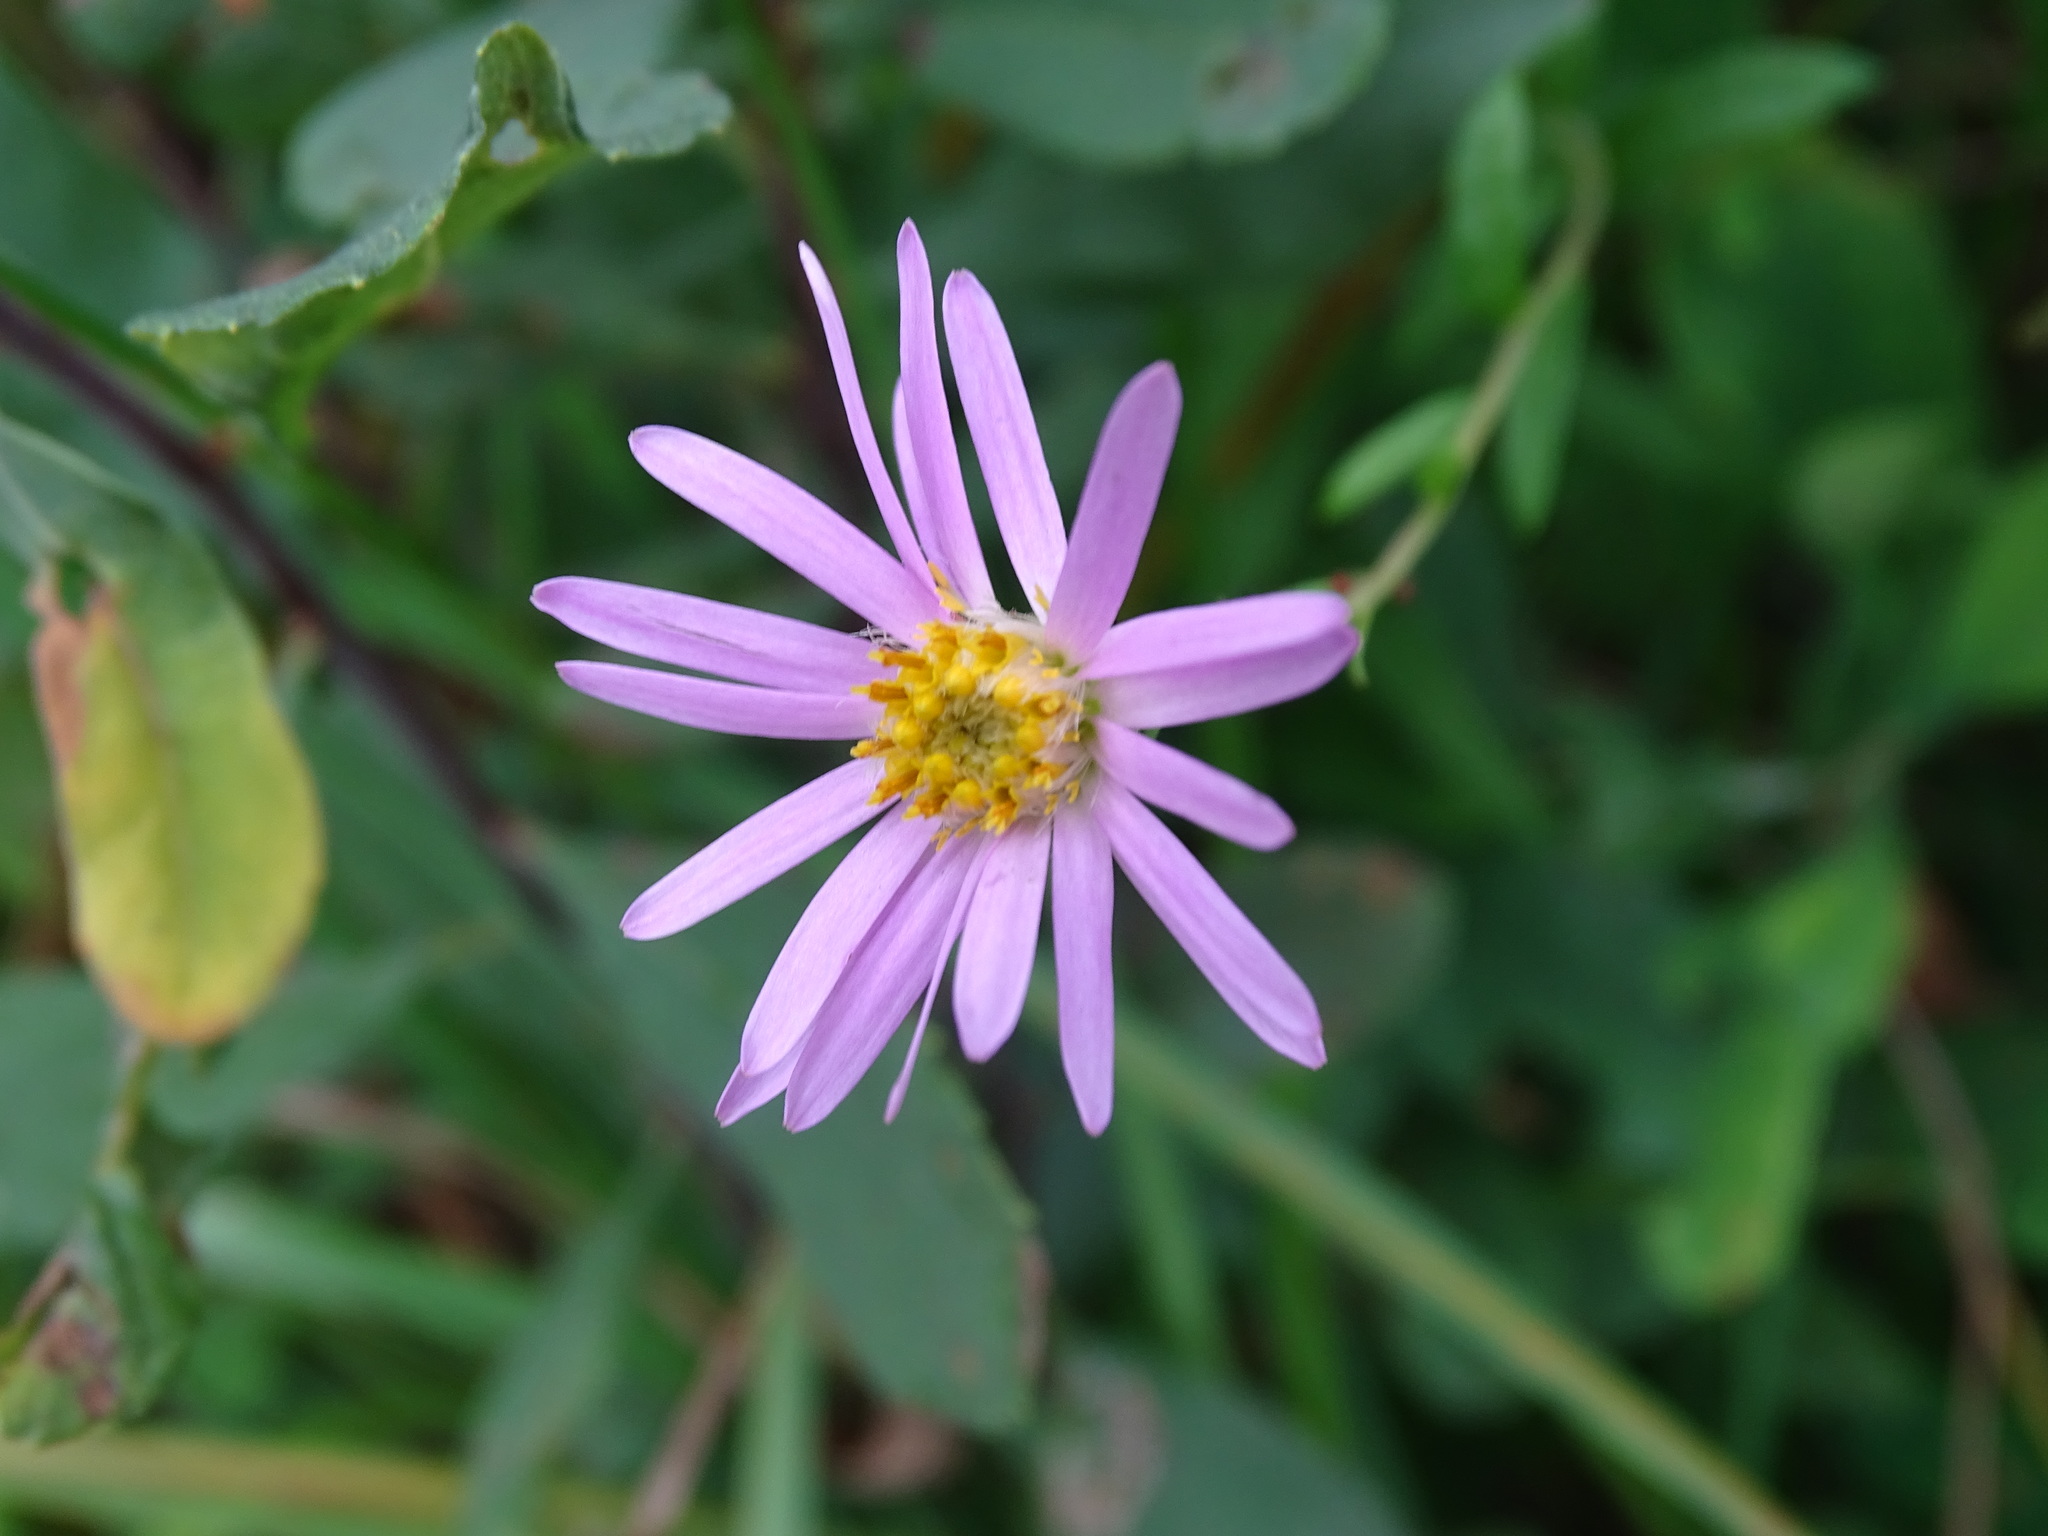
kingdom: Plantae
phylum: Tracheophyta
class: Magnoliopsida
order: Asterales
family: Asteraceae
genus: Oclemena
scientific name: Oclemena nemoralis
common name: Bog aster
